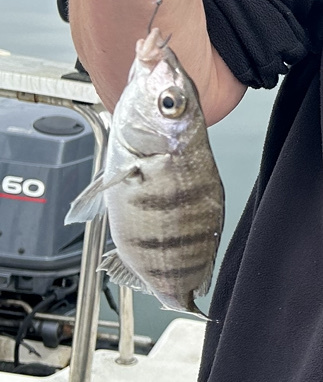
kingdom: Animalia
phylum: Chordata
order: Perciformes
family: Sparidae
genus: Lithognathus
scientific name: Lithognathus lithognathus
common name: White steenbras
